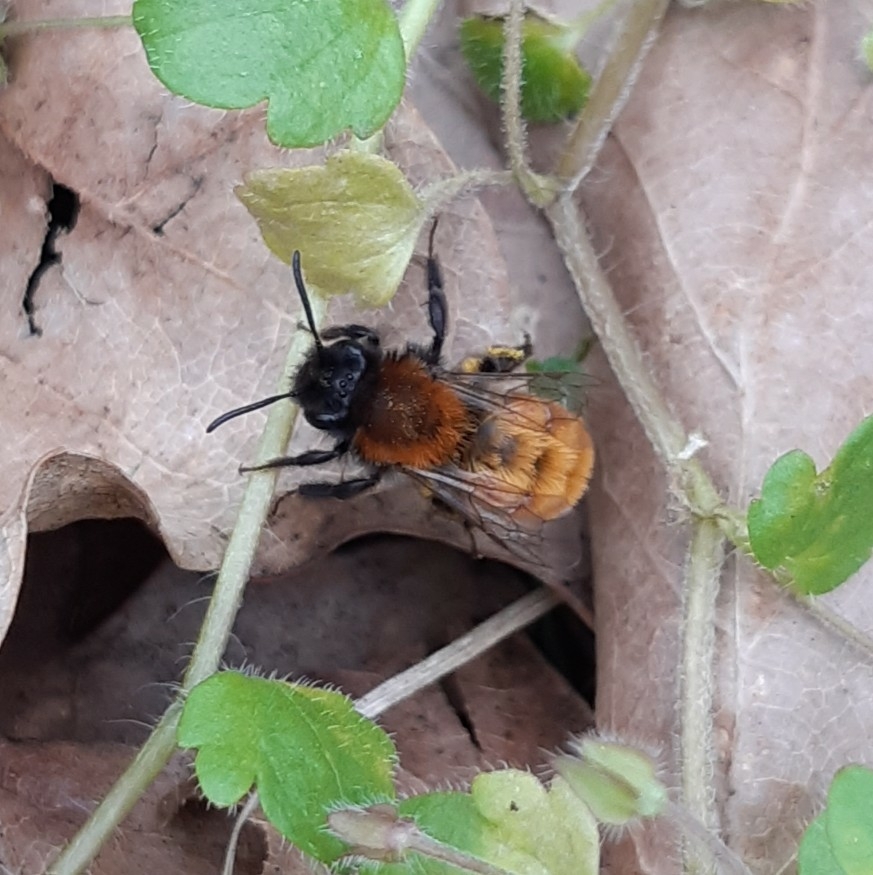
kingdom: Animalia
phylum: Arthropoda
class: Insecta
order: Hymenoptera
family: Andrenidae
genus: Andrena
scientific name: Andrena fulva
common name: Tawny mining bee
